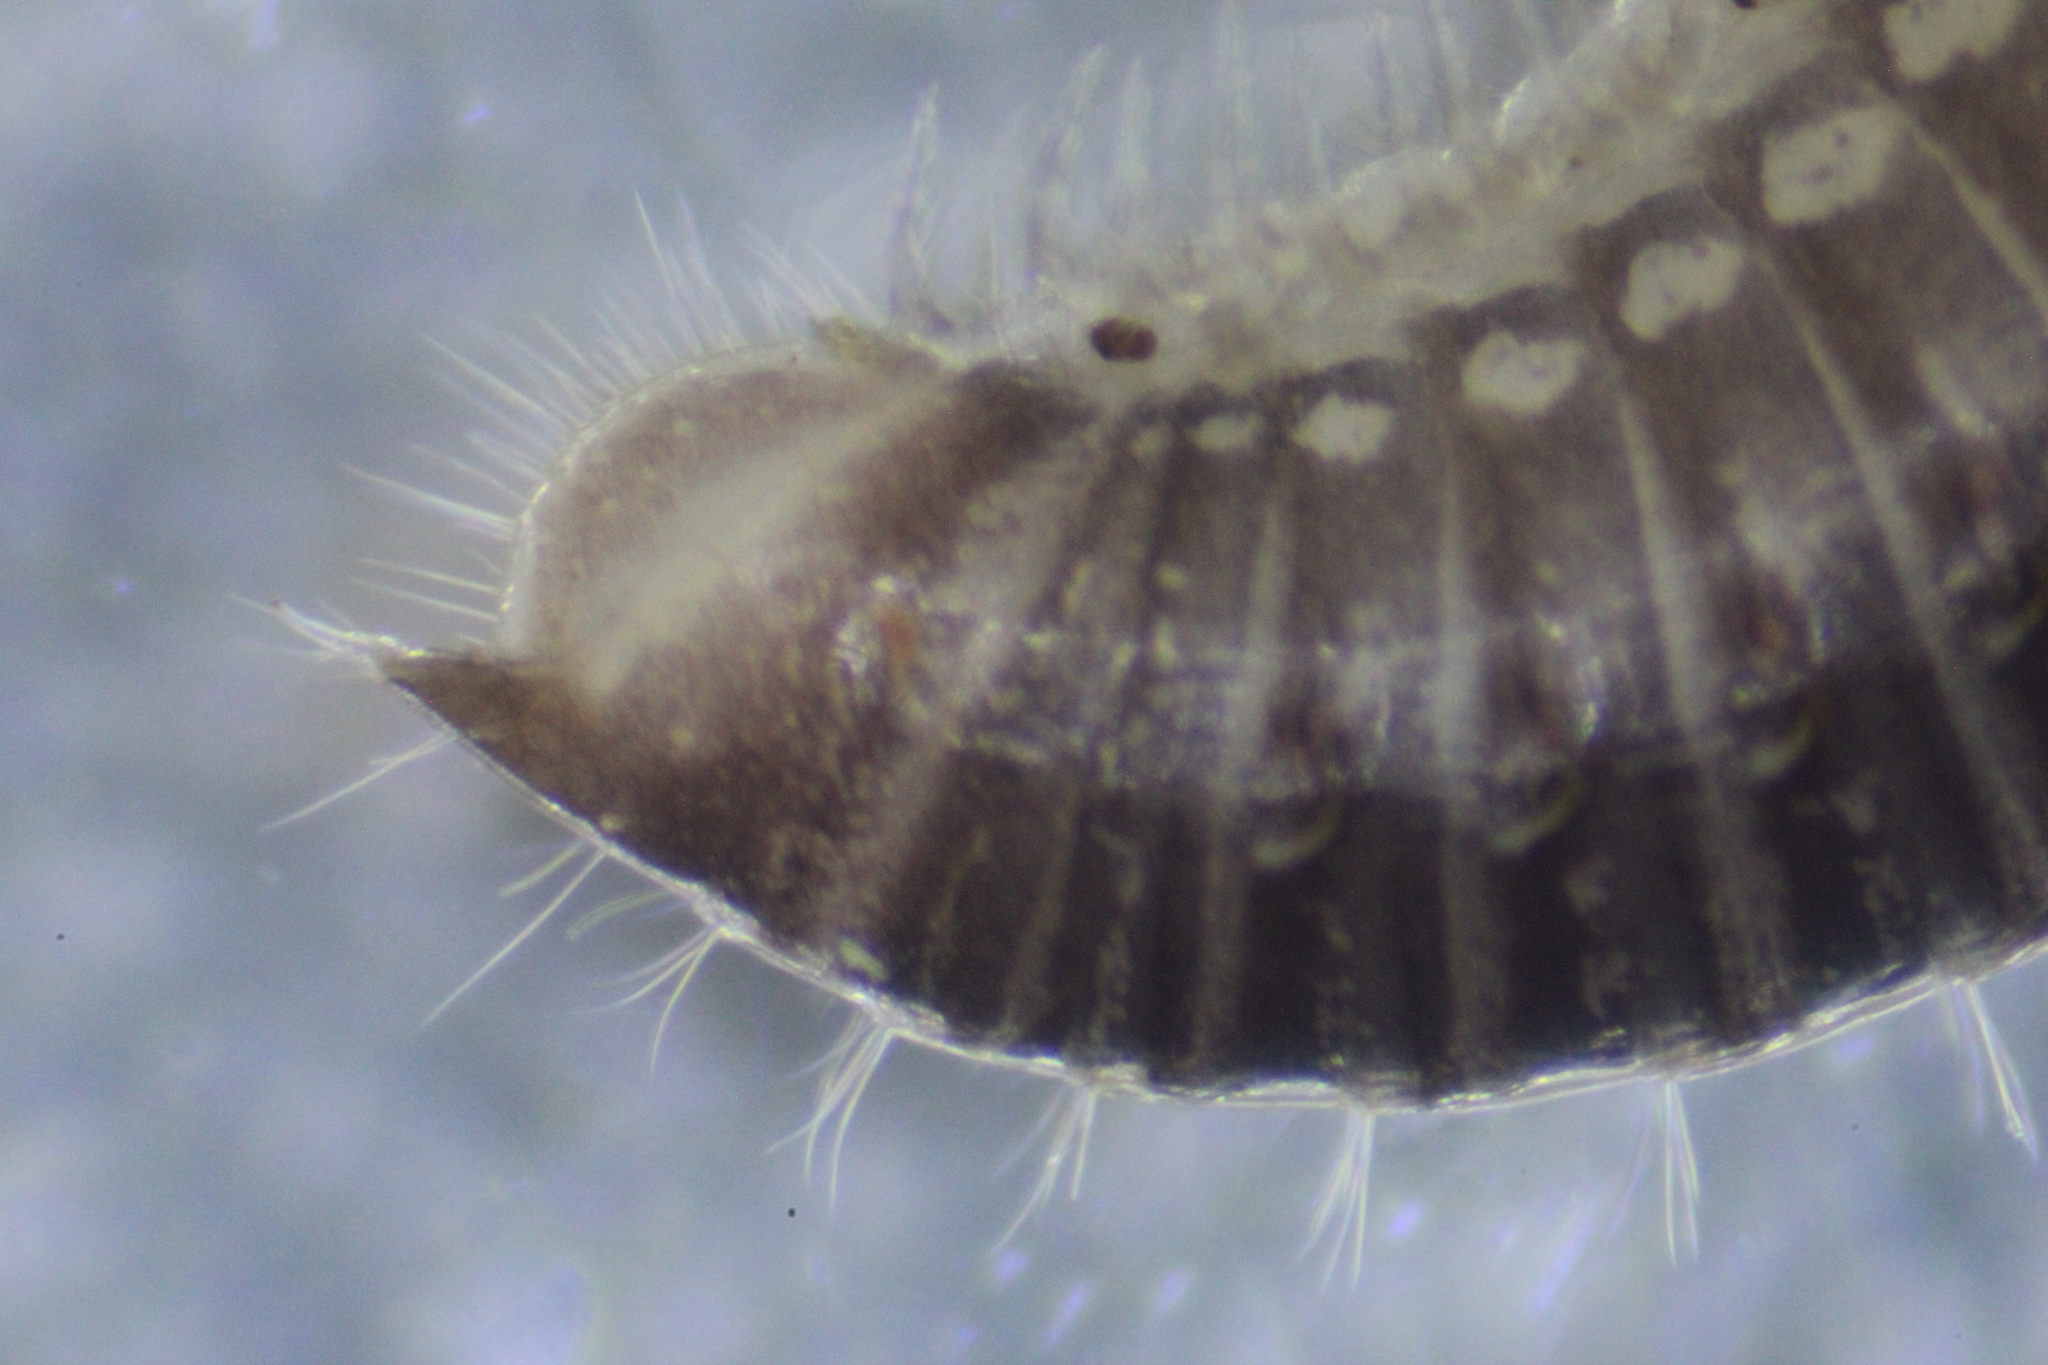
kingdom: Animalia
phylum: Arthropoda
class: Diplopoda
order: Julida
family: Julidae
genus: Ophyiulus
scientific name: Ophyiulus pilosus
